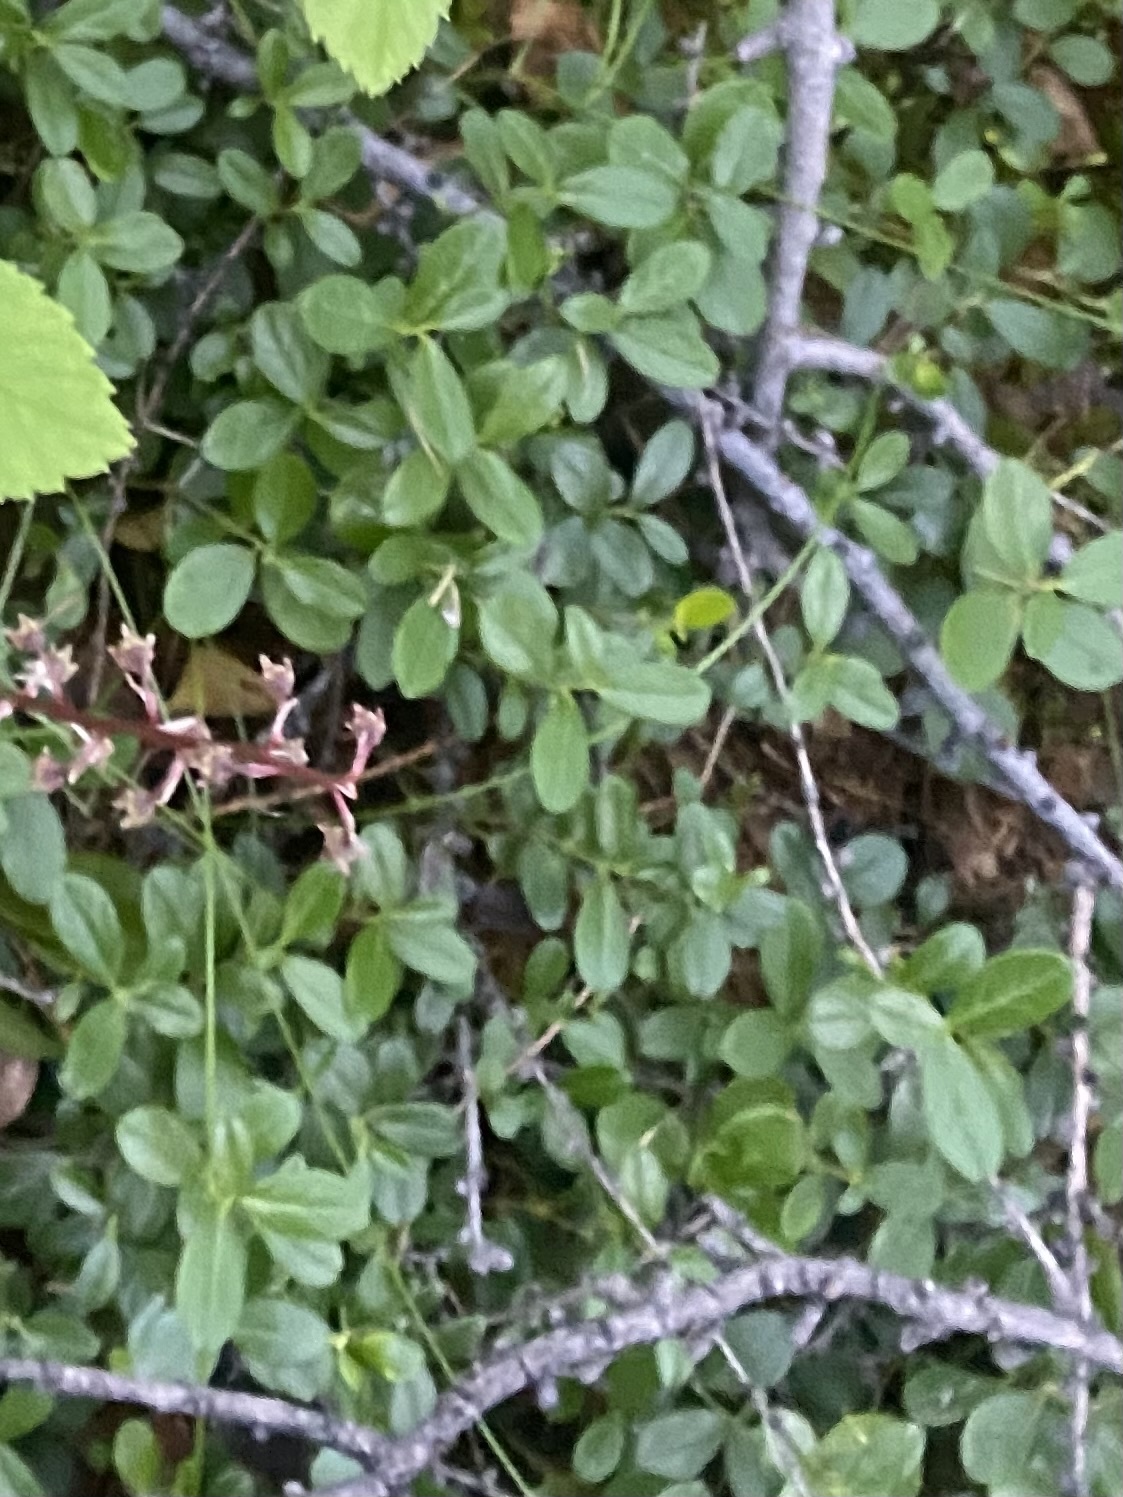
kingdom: Plantae
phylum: Tracheophyta
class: Magnoliopsida
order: Ericales
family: Ericaceae
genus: Vaccinium
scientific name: Vaccinium vitis-idaea
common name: Cowberry
